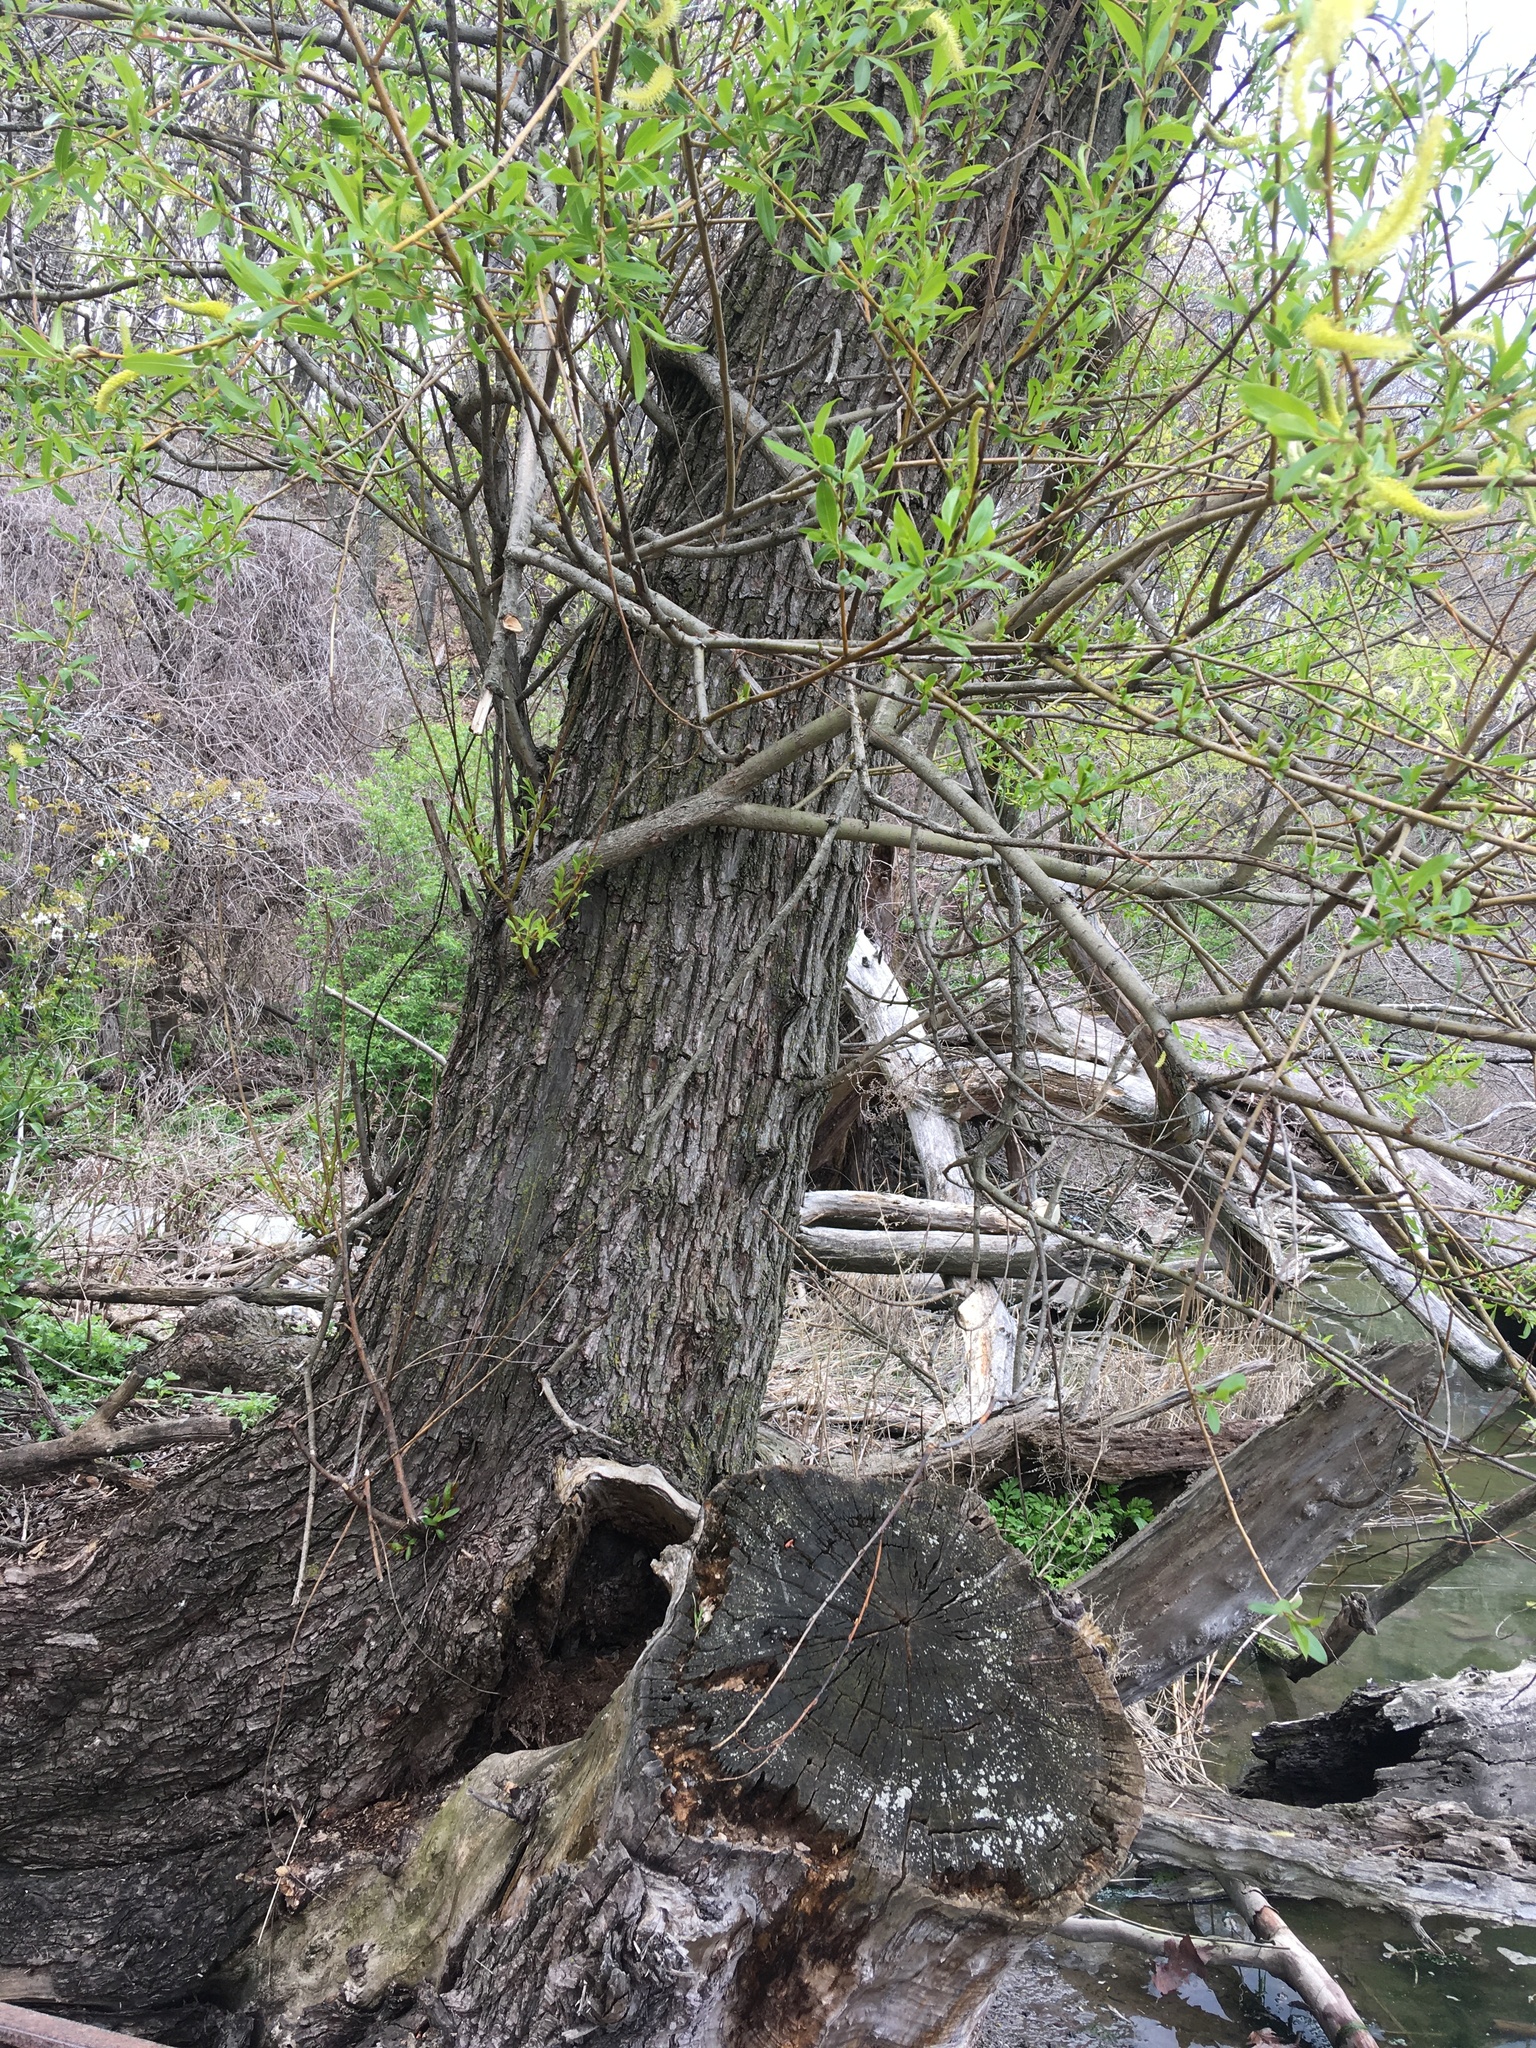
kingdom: Plantae
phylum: Tracheophyta
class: Magnoliopsida
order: Malpighiales
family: Salicaceae
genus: Salix
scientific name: Salix nigra
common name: Black willow
